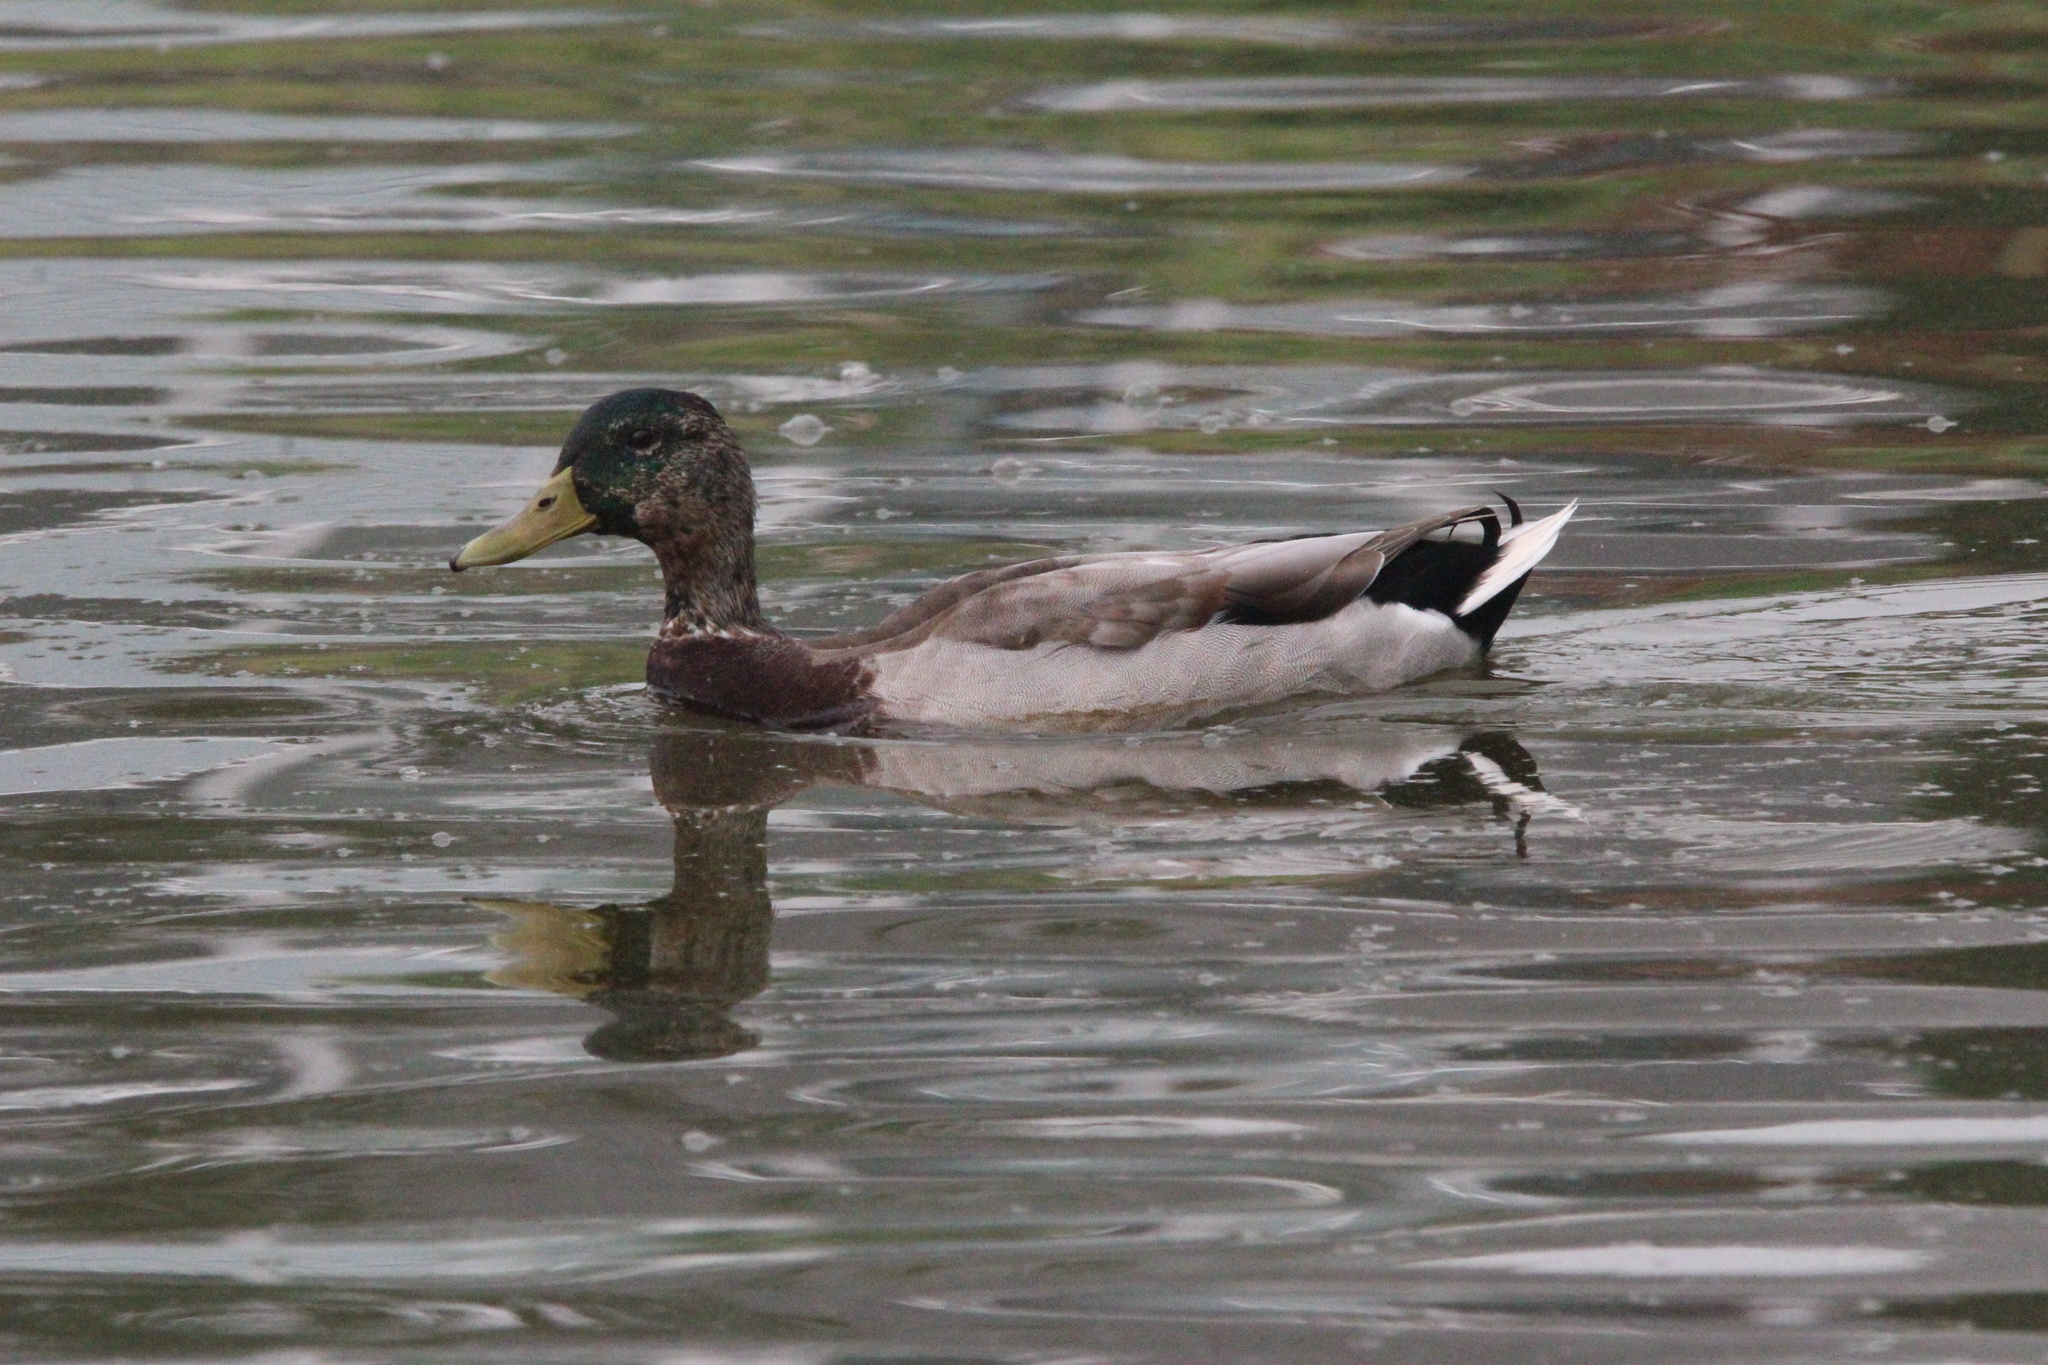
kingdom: Animalia
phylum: Chordata
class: Aves
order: Anseriformes
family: Anatidae
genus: Anas
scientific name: Anas platyrhynchos
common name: Mallard
